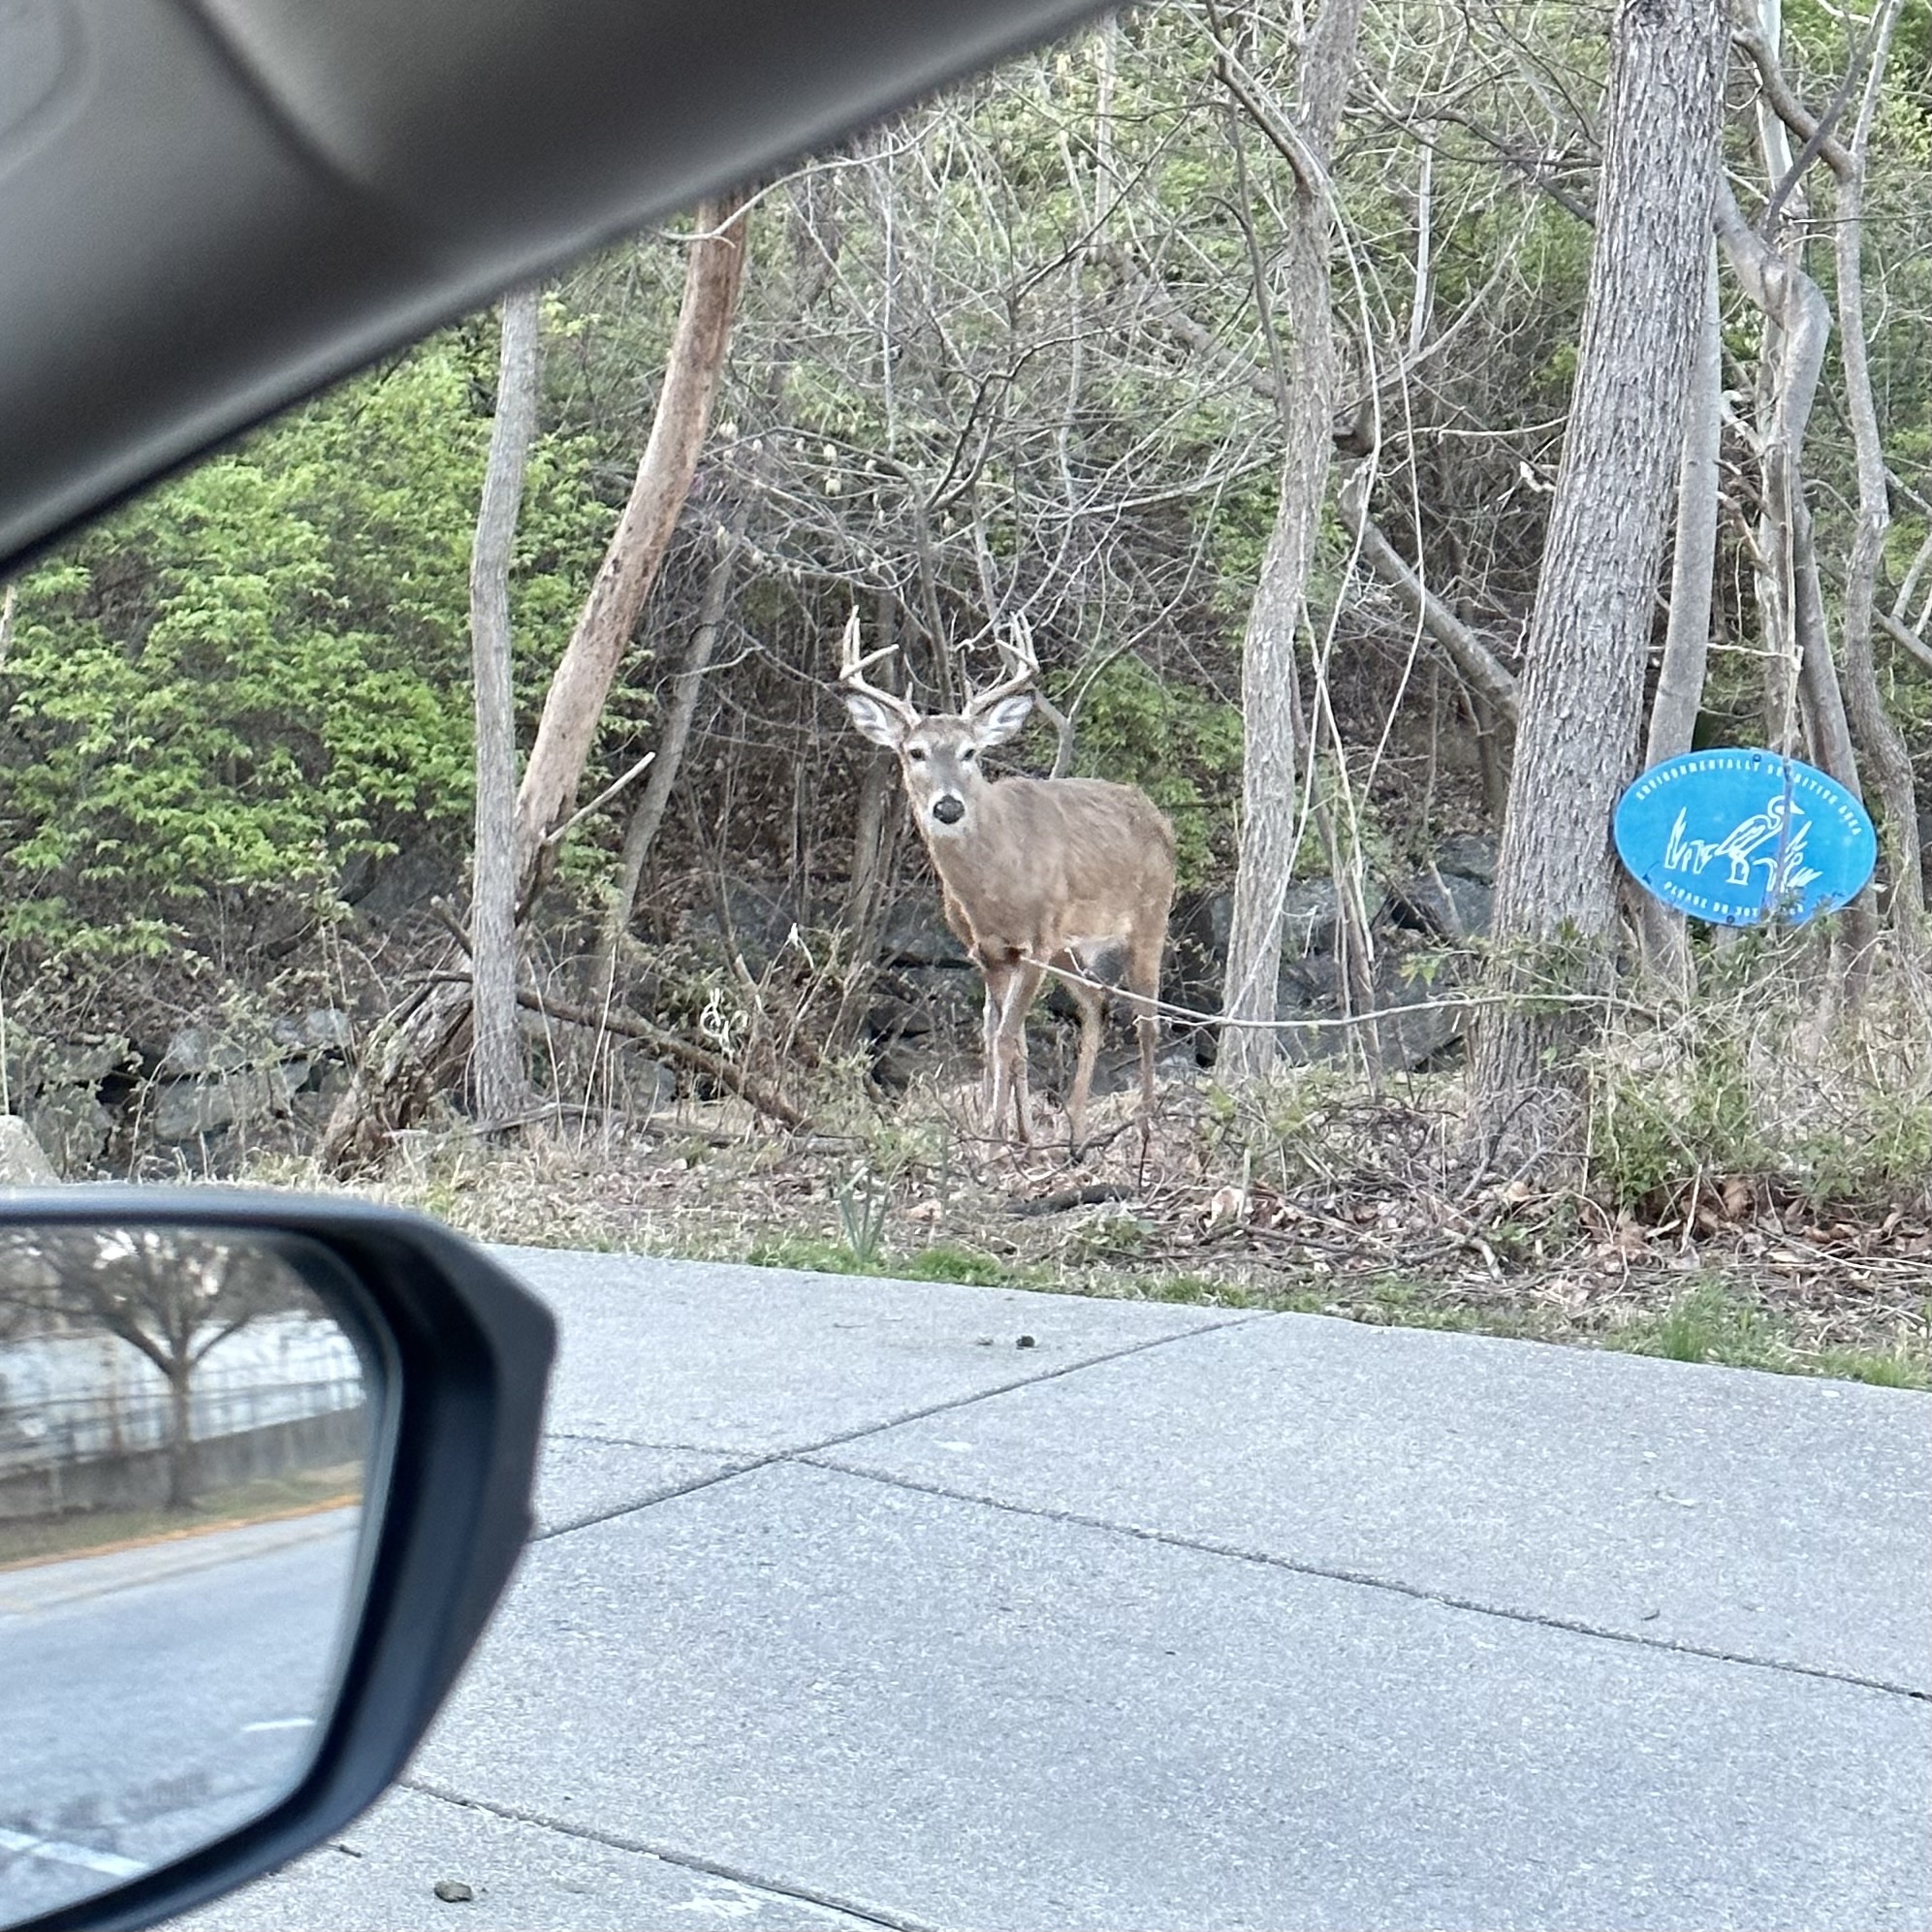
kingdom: Animalia
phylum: Chordata
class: Mammalia
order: Artiodactyla
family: Cervidae
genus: Odocoileus
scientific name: Odocoileus virginianus
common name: White-tailed deer
